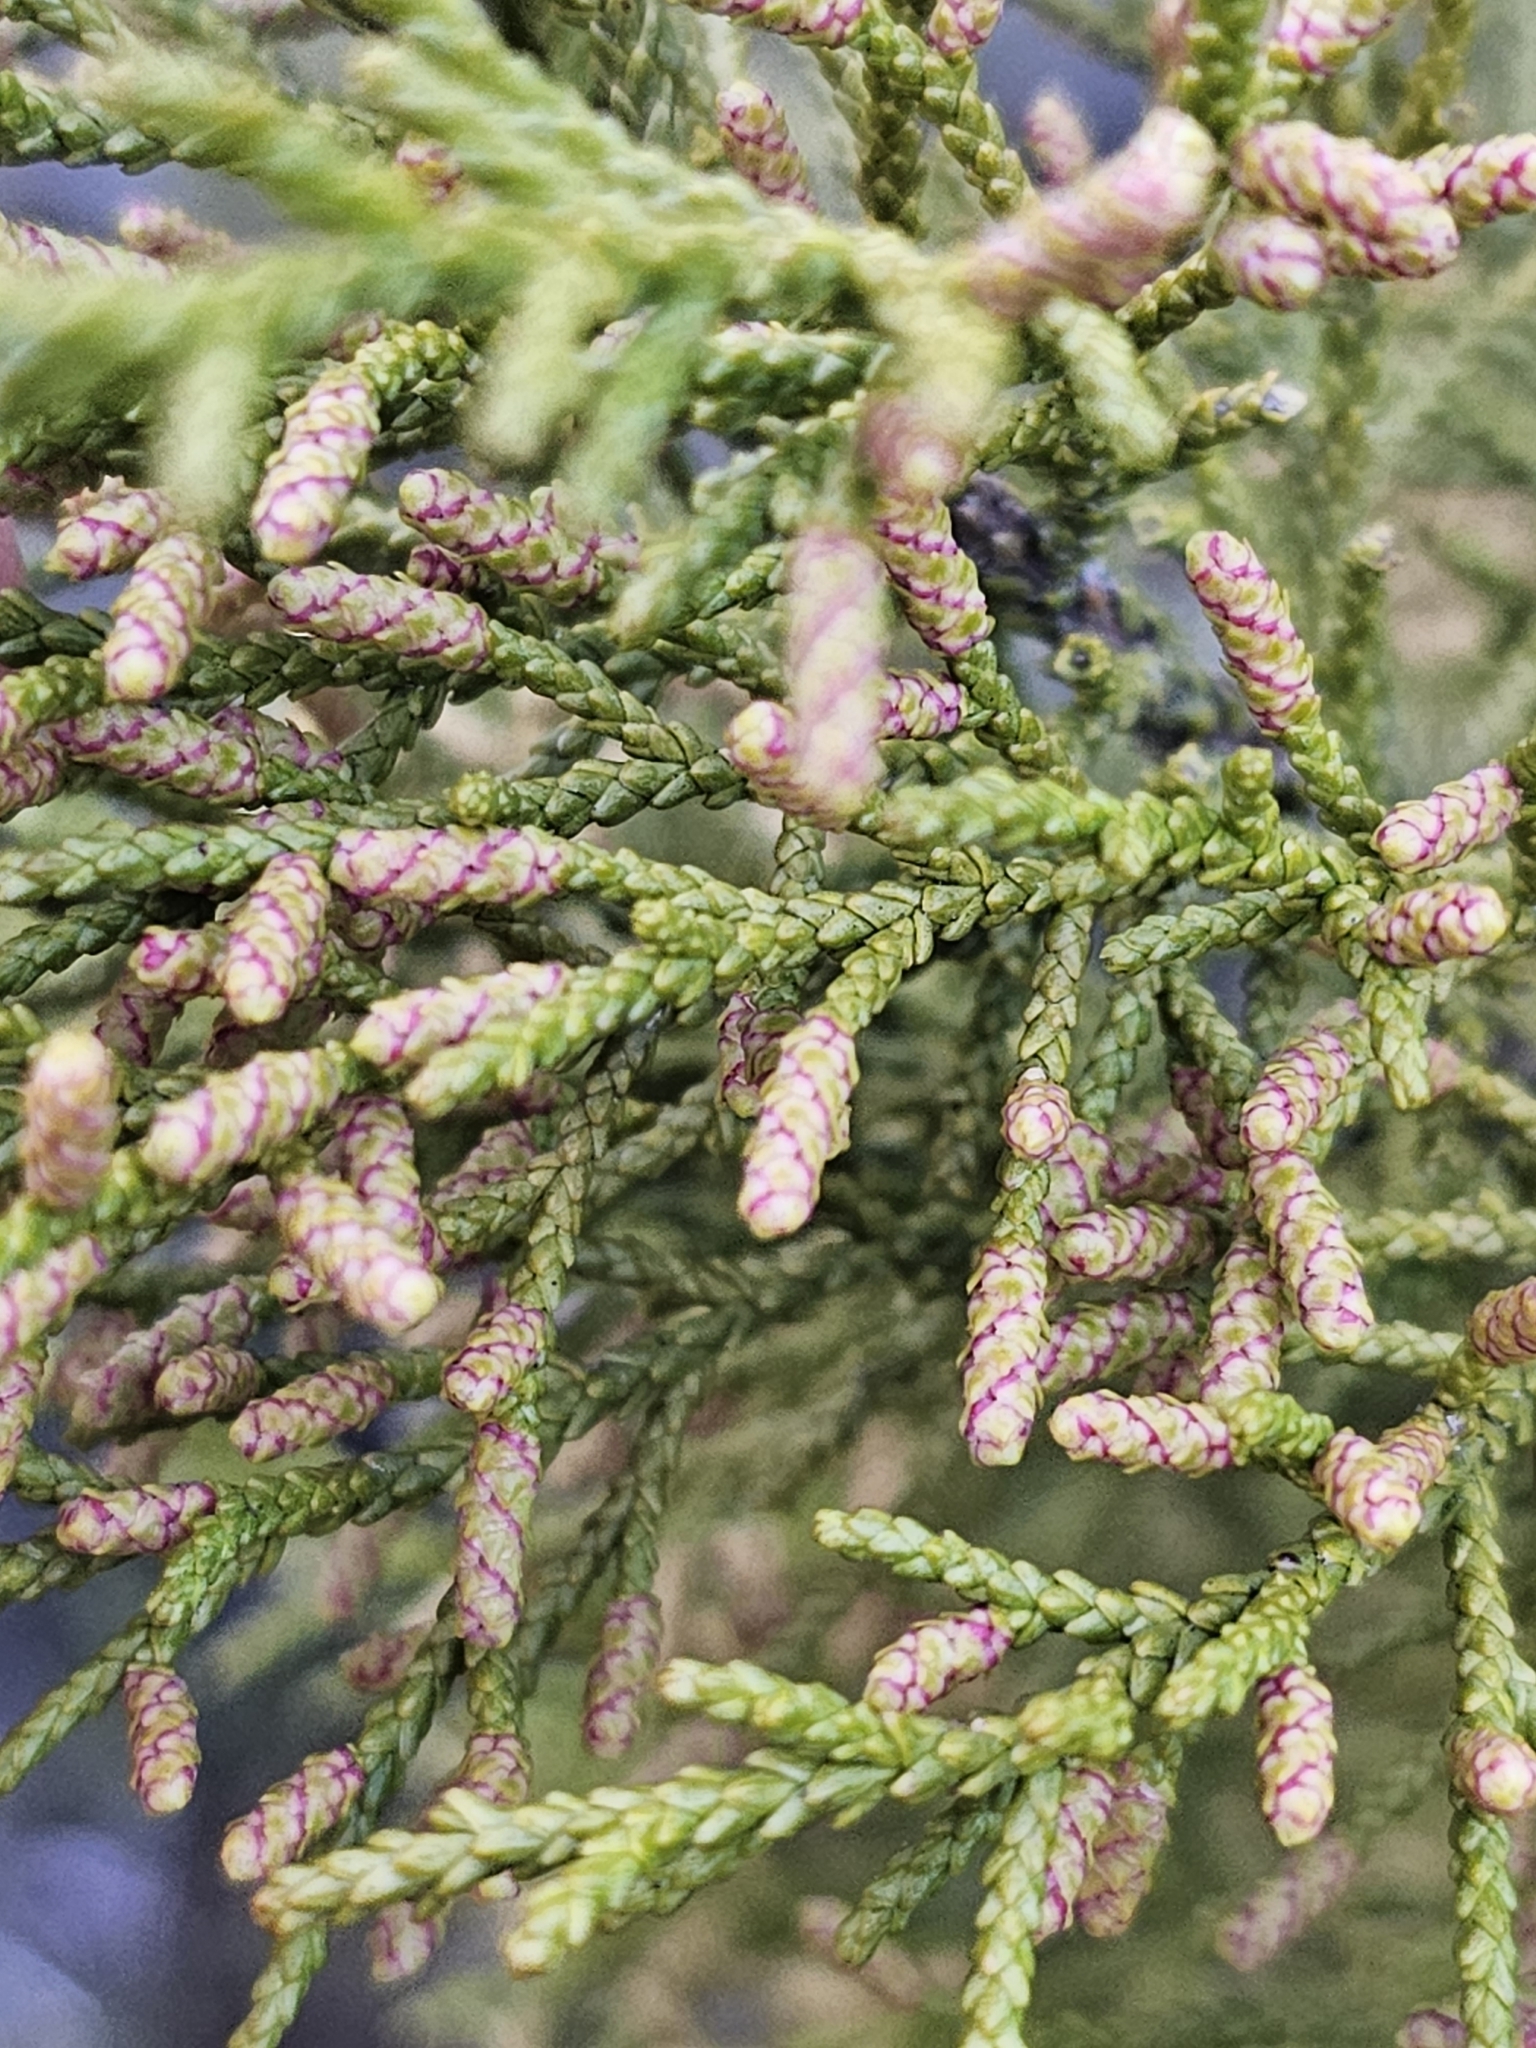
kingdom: Plantae
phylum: Tracheophyta
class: Pinopsida
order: Pinales
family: Podocarpaceae
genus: Lepidothamnus
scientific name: Lepidothamnus
